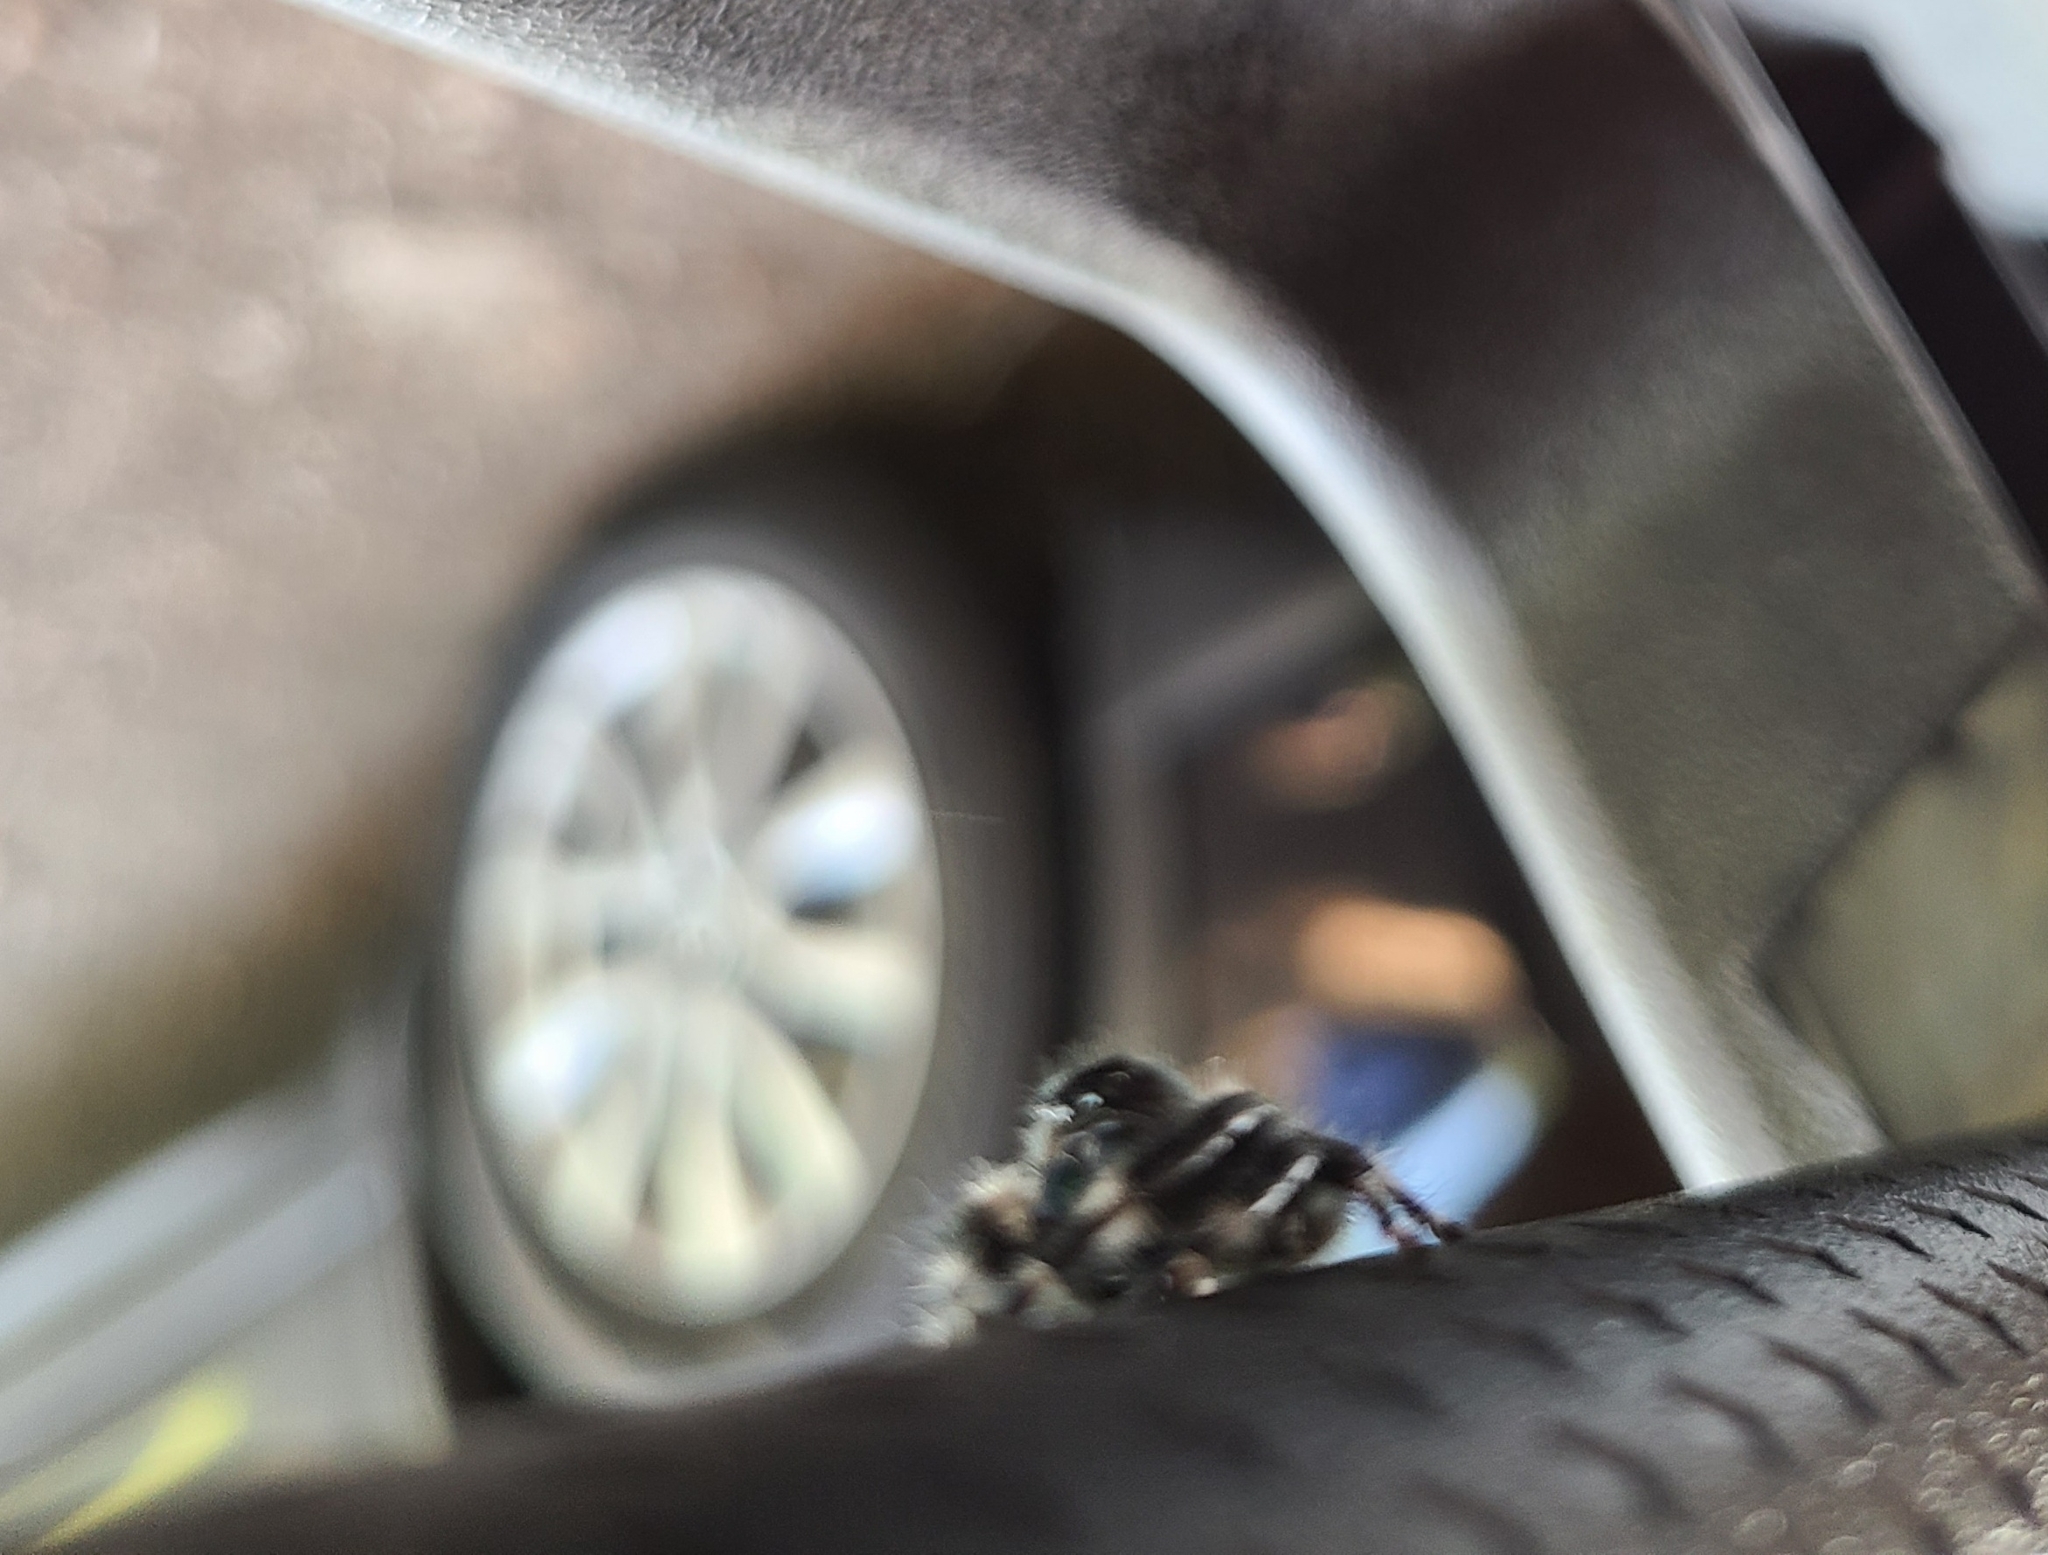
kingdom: Animalia
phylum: Arthropoda
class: Arachnida
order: Araneae
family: Salticidae
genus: Phidippus
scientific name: Phidippus audax
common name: Bold jumper
